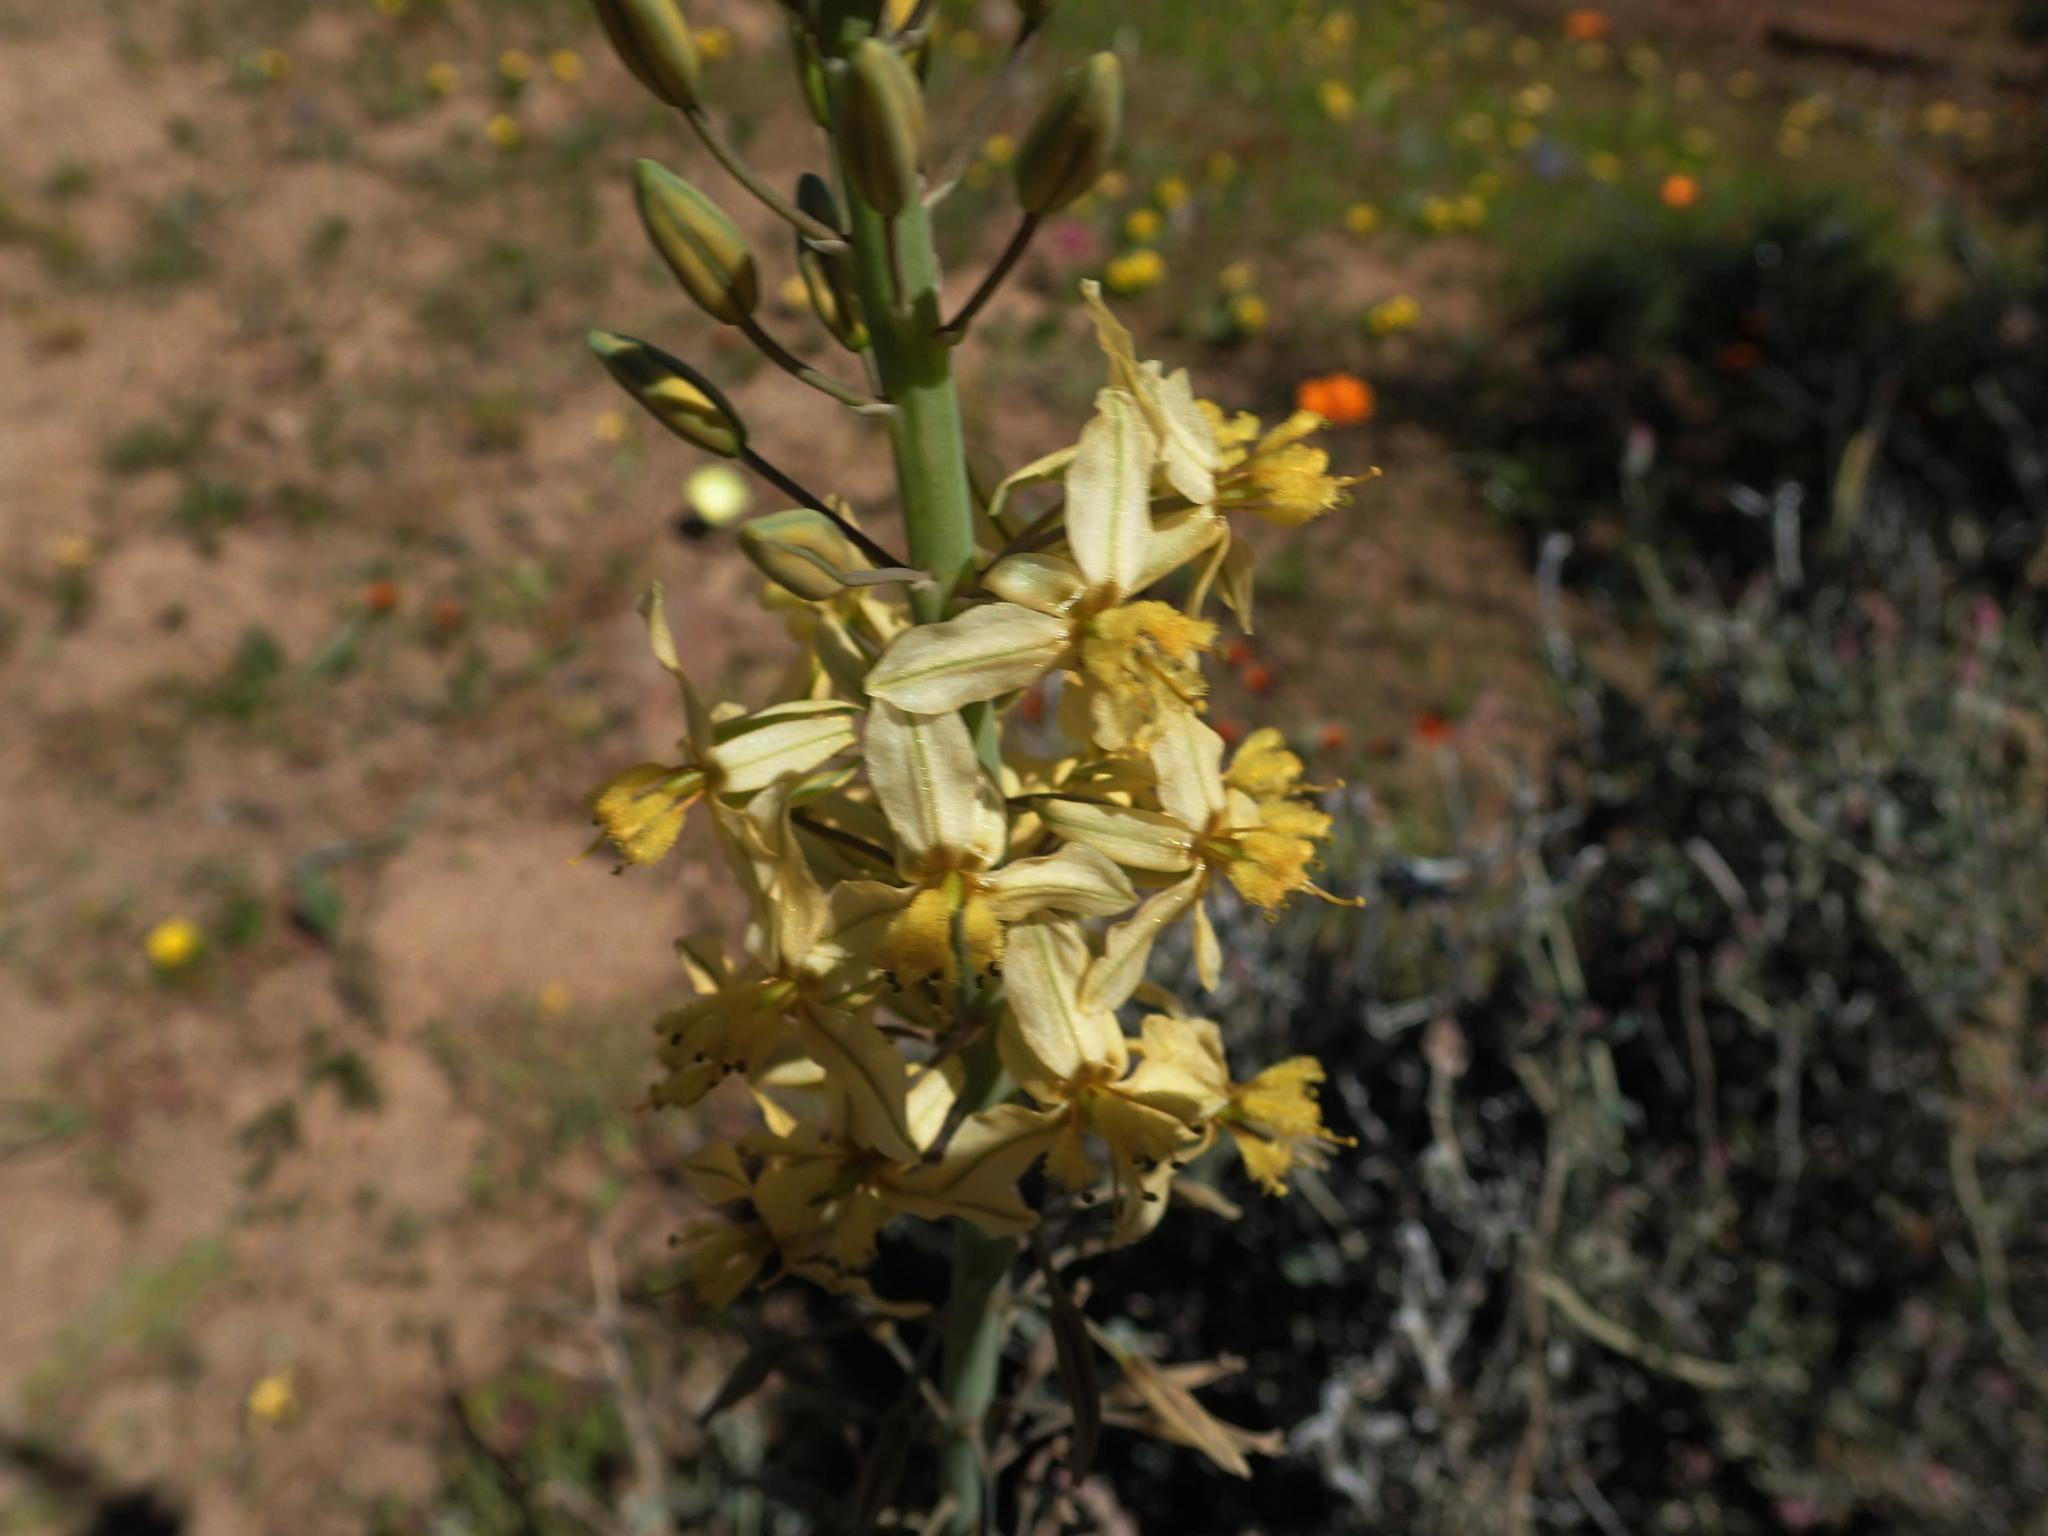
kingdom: Plantae
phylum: Tracheophyta
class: Liliopsida
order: Asparagales
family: Asphodelaceae
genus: Bulbine
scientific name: Bulbine praemorsa
